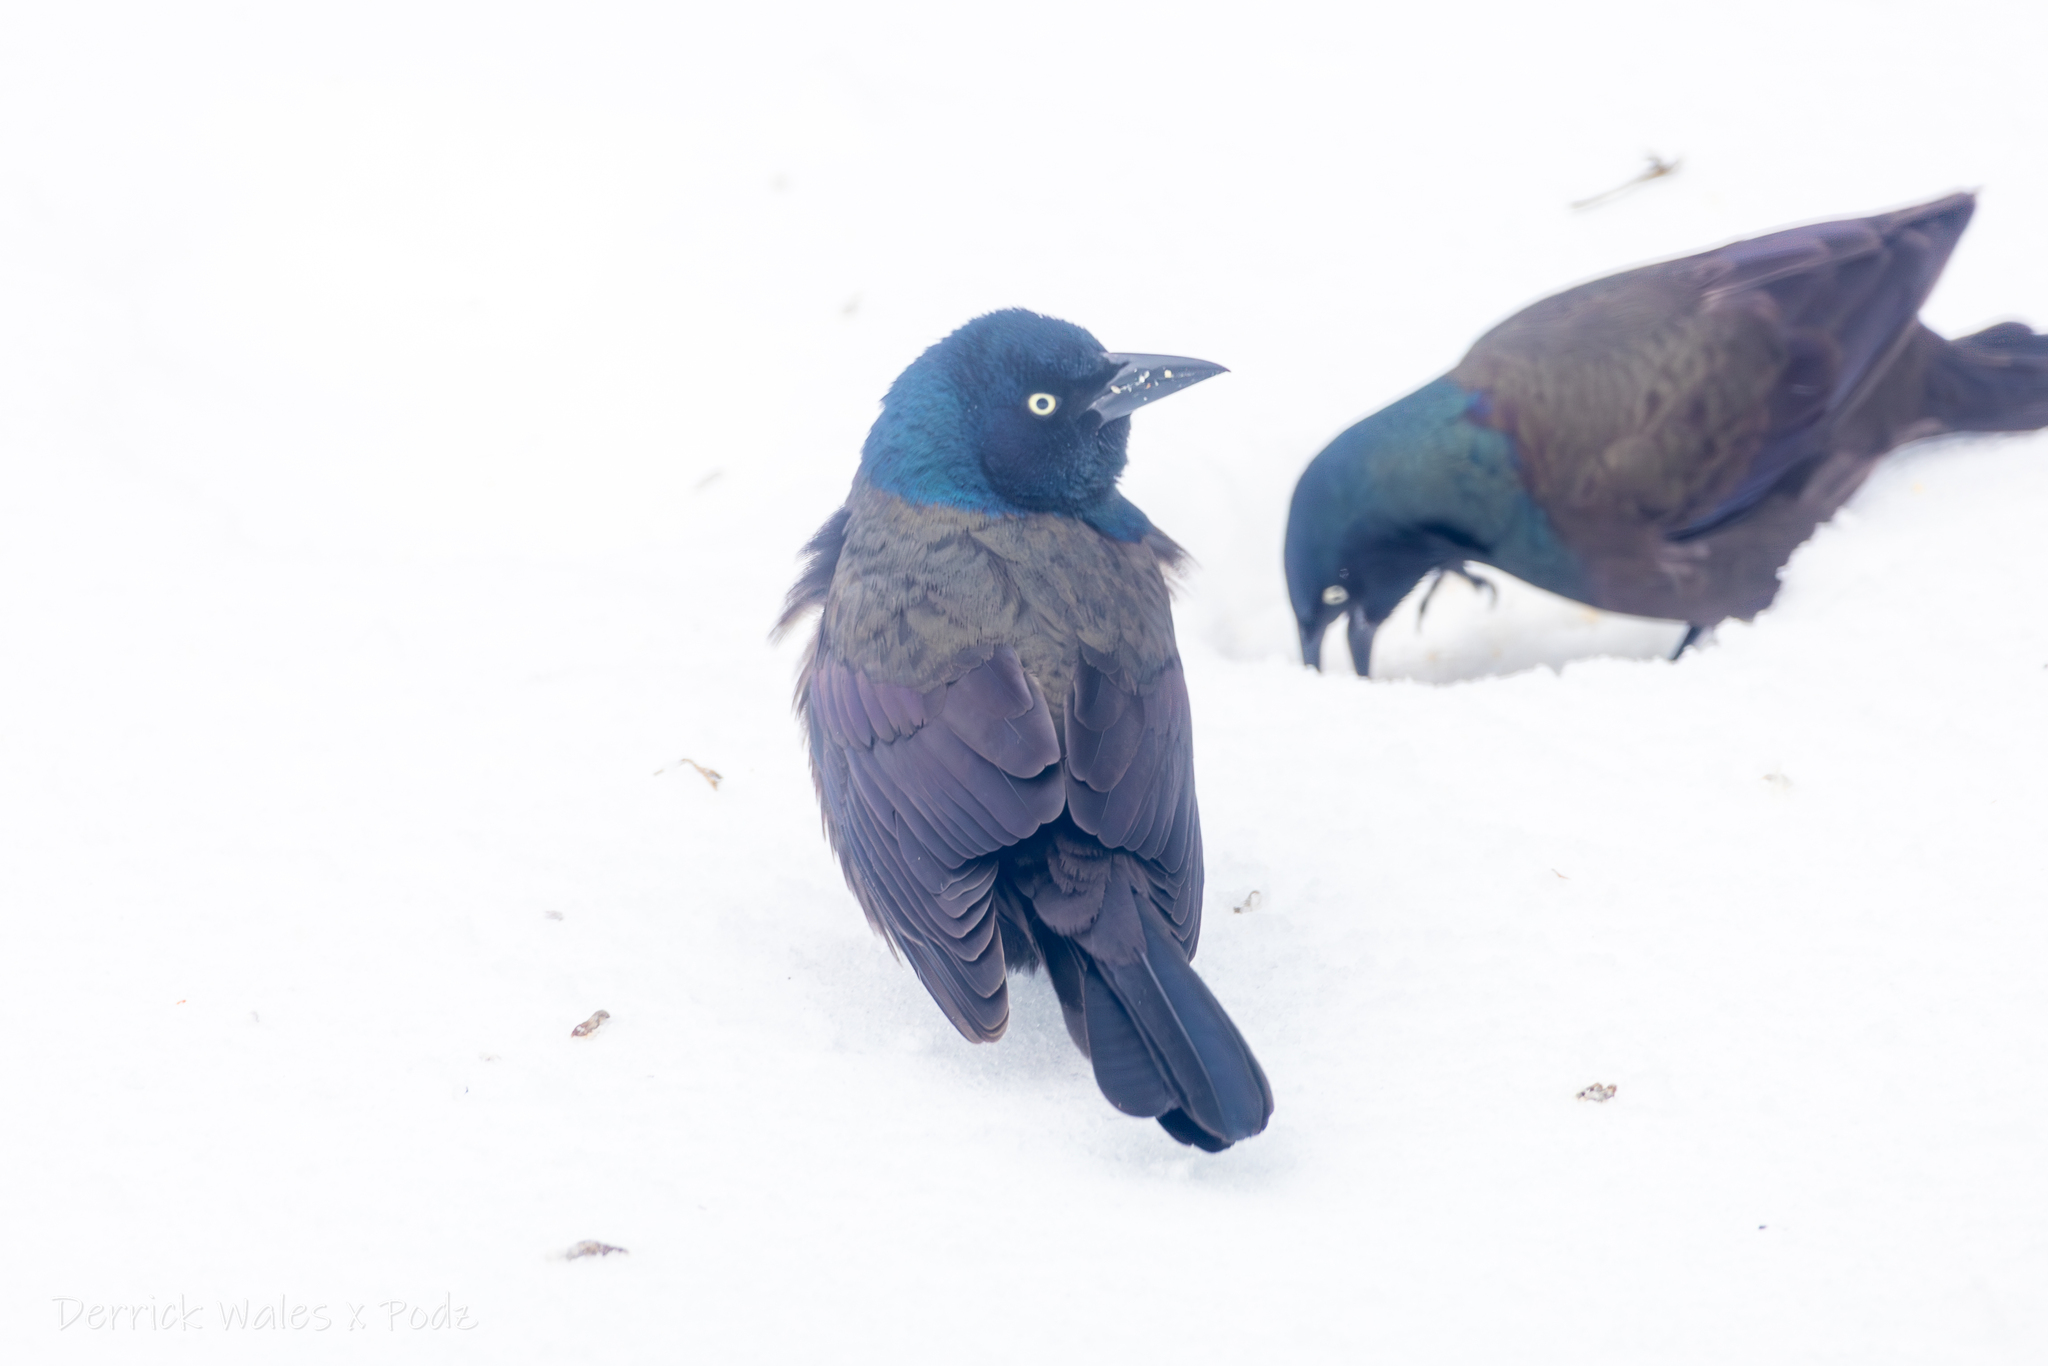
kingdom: Animalia
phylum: Chordata
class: Aves
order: Passeriformes
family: Icteridae
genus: Quiscalus
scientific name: Quiscalus quiscula
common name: Common grackle
